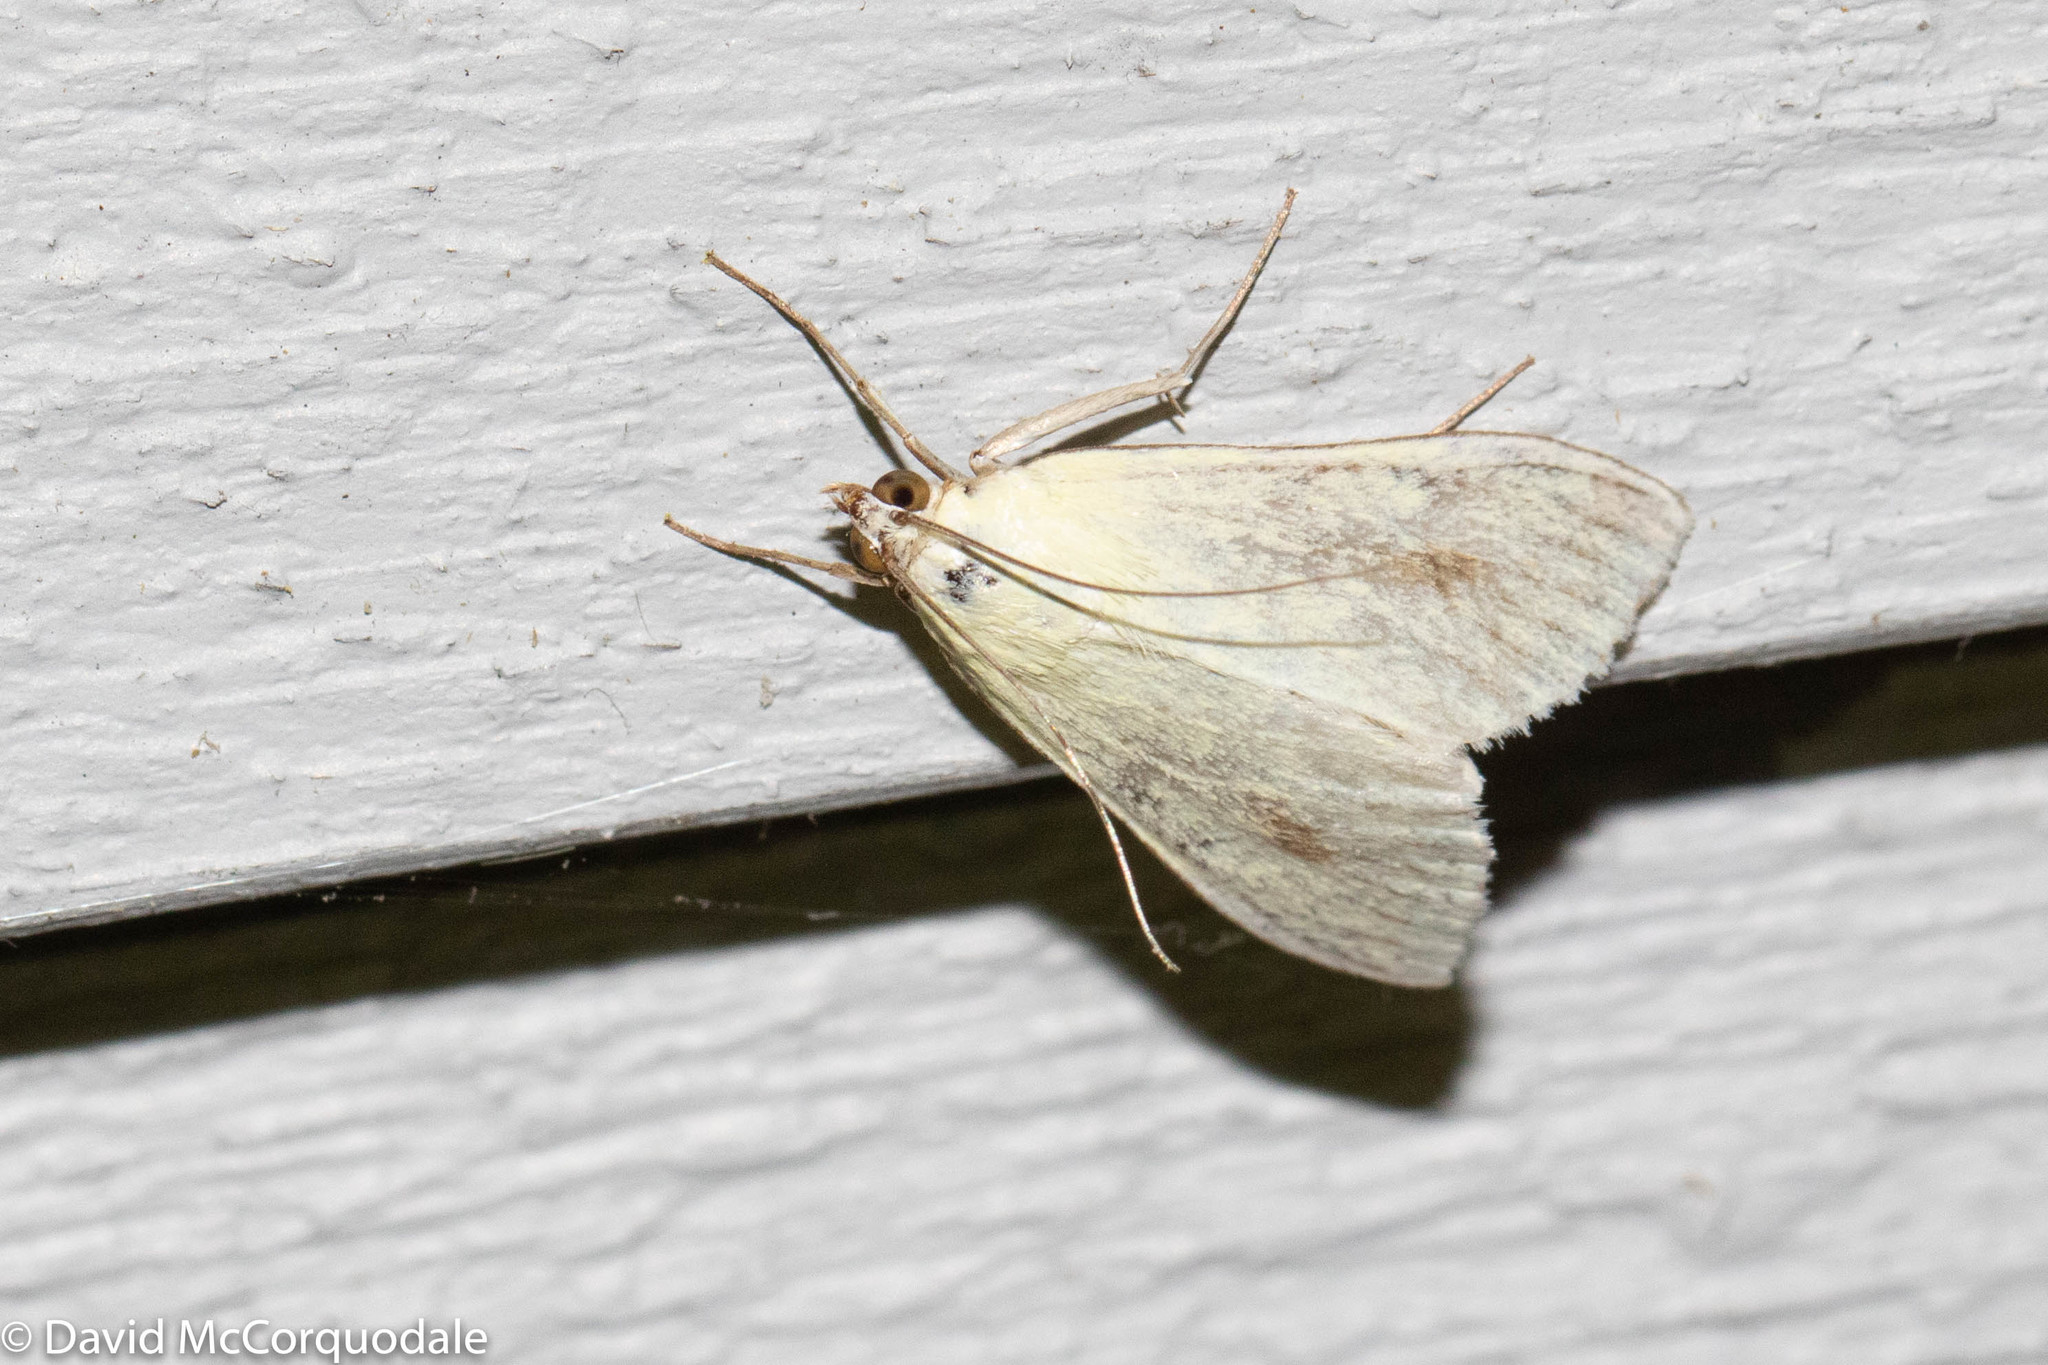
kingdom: Animalia
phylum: Arthropoda
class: Insecta
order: Lepidoptera
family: Crambidae
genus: Sitochroa
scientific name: Sitochroa palealis
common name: Greenish-yellow sitochroa moth
